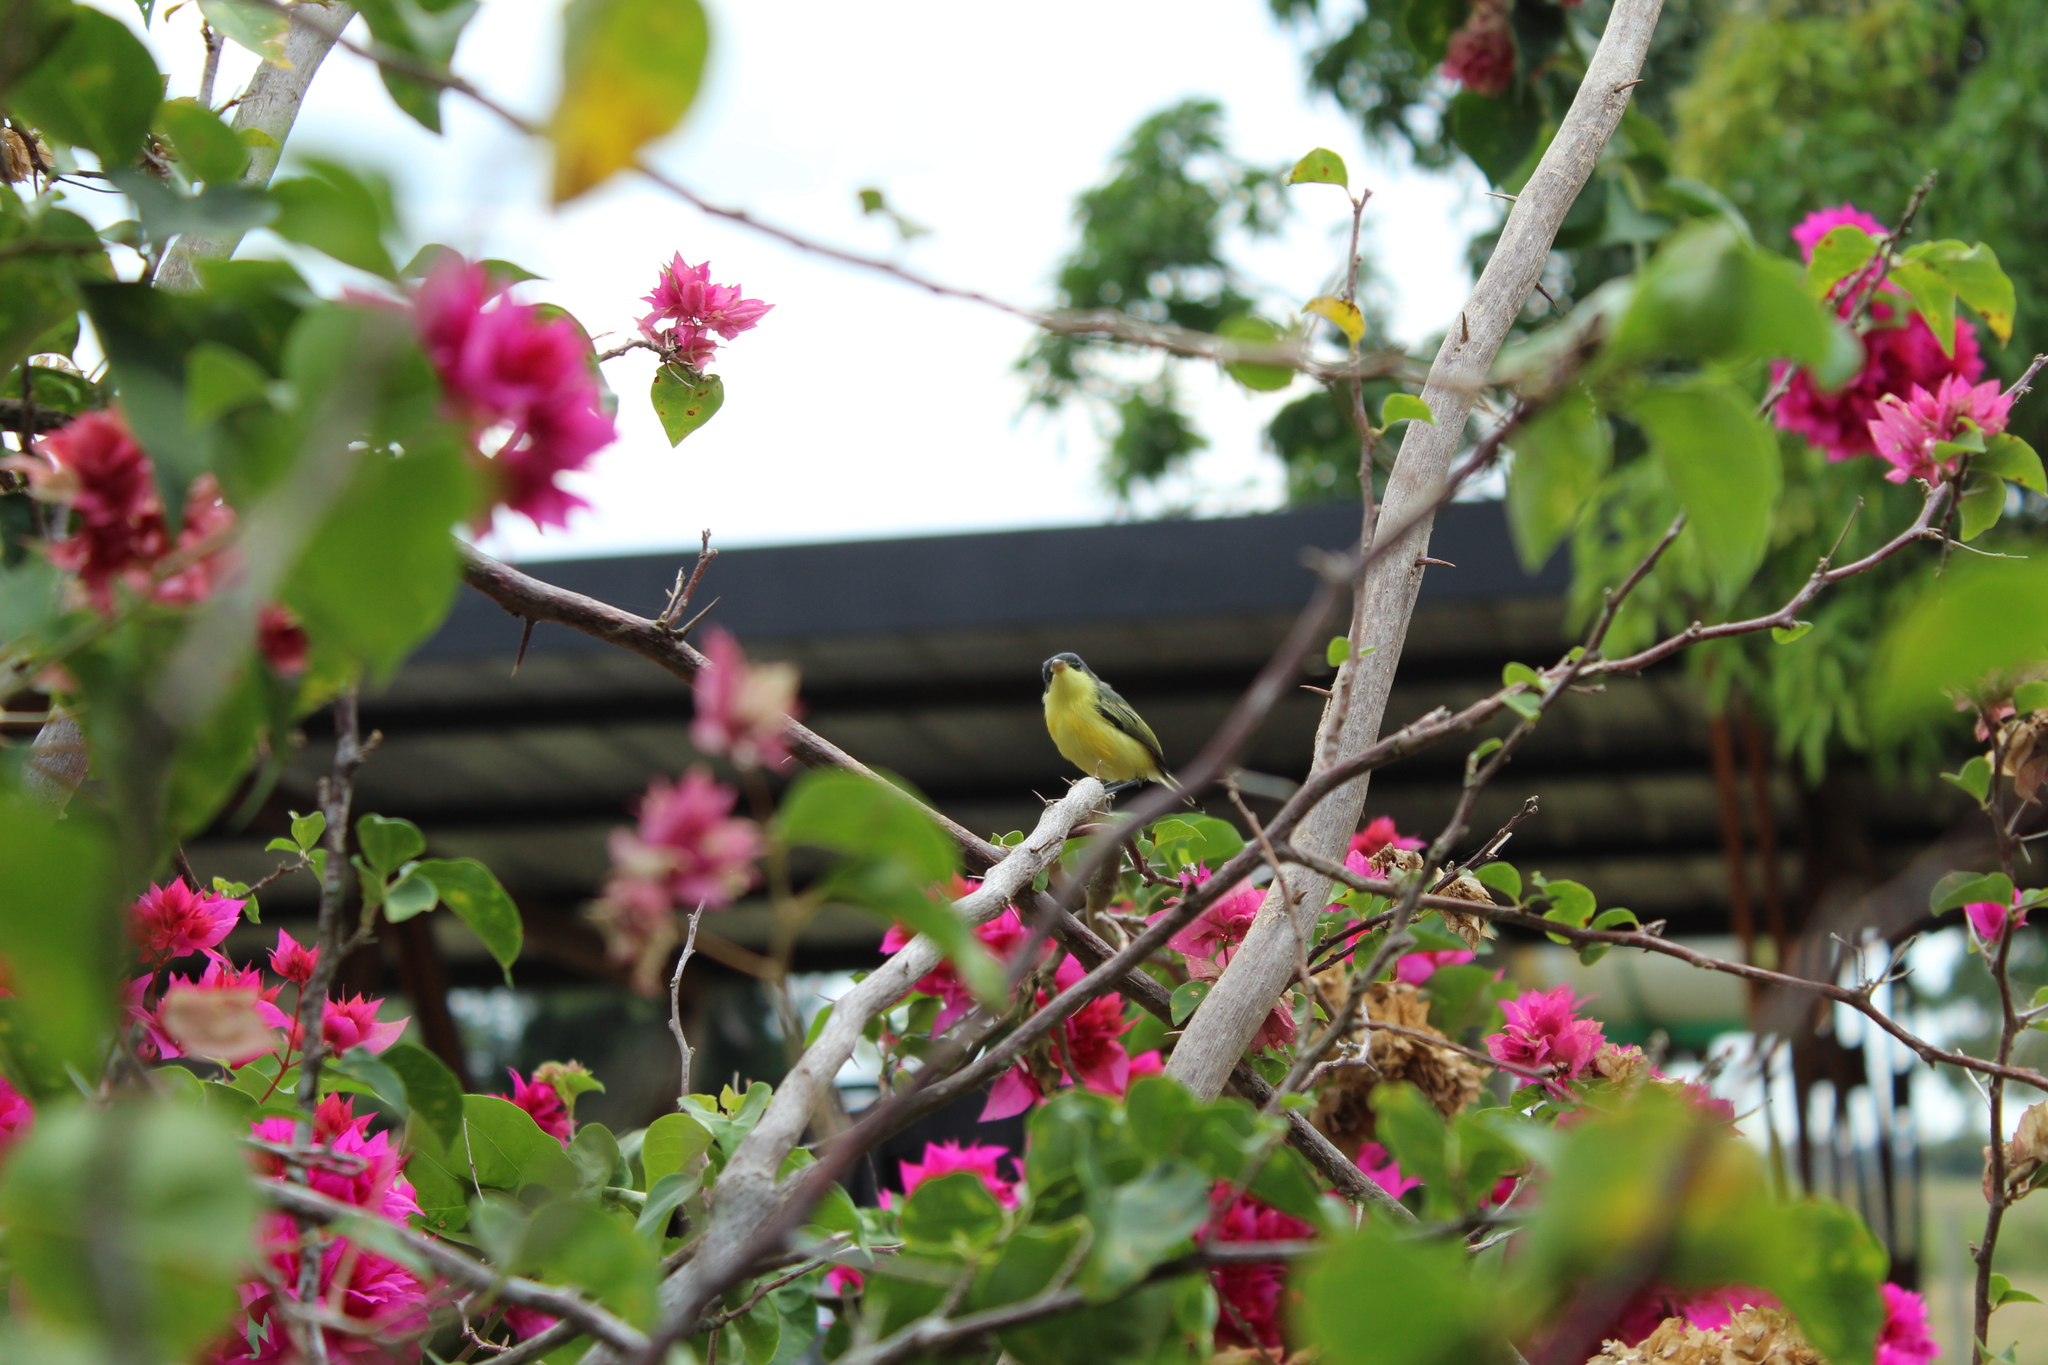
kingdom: Animalia
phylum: Chordata
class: Aves
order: Passeriformes
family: Tyrannidae
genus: Todirostrum
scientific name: Todirostrum cinereum
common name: Common tody-flycatcher
